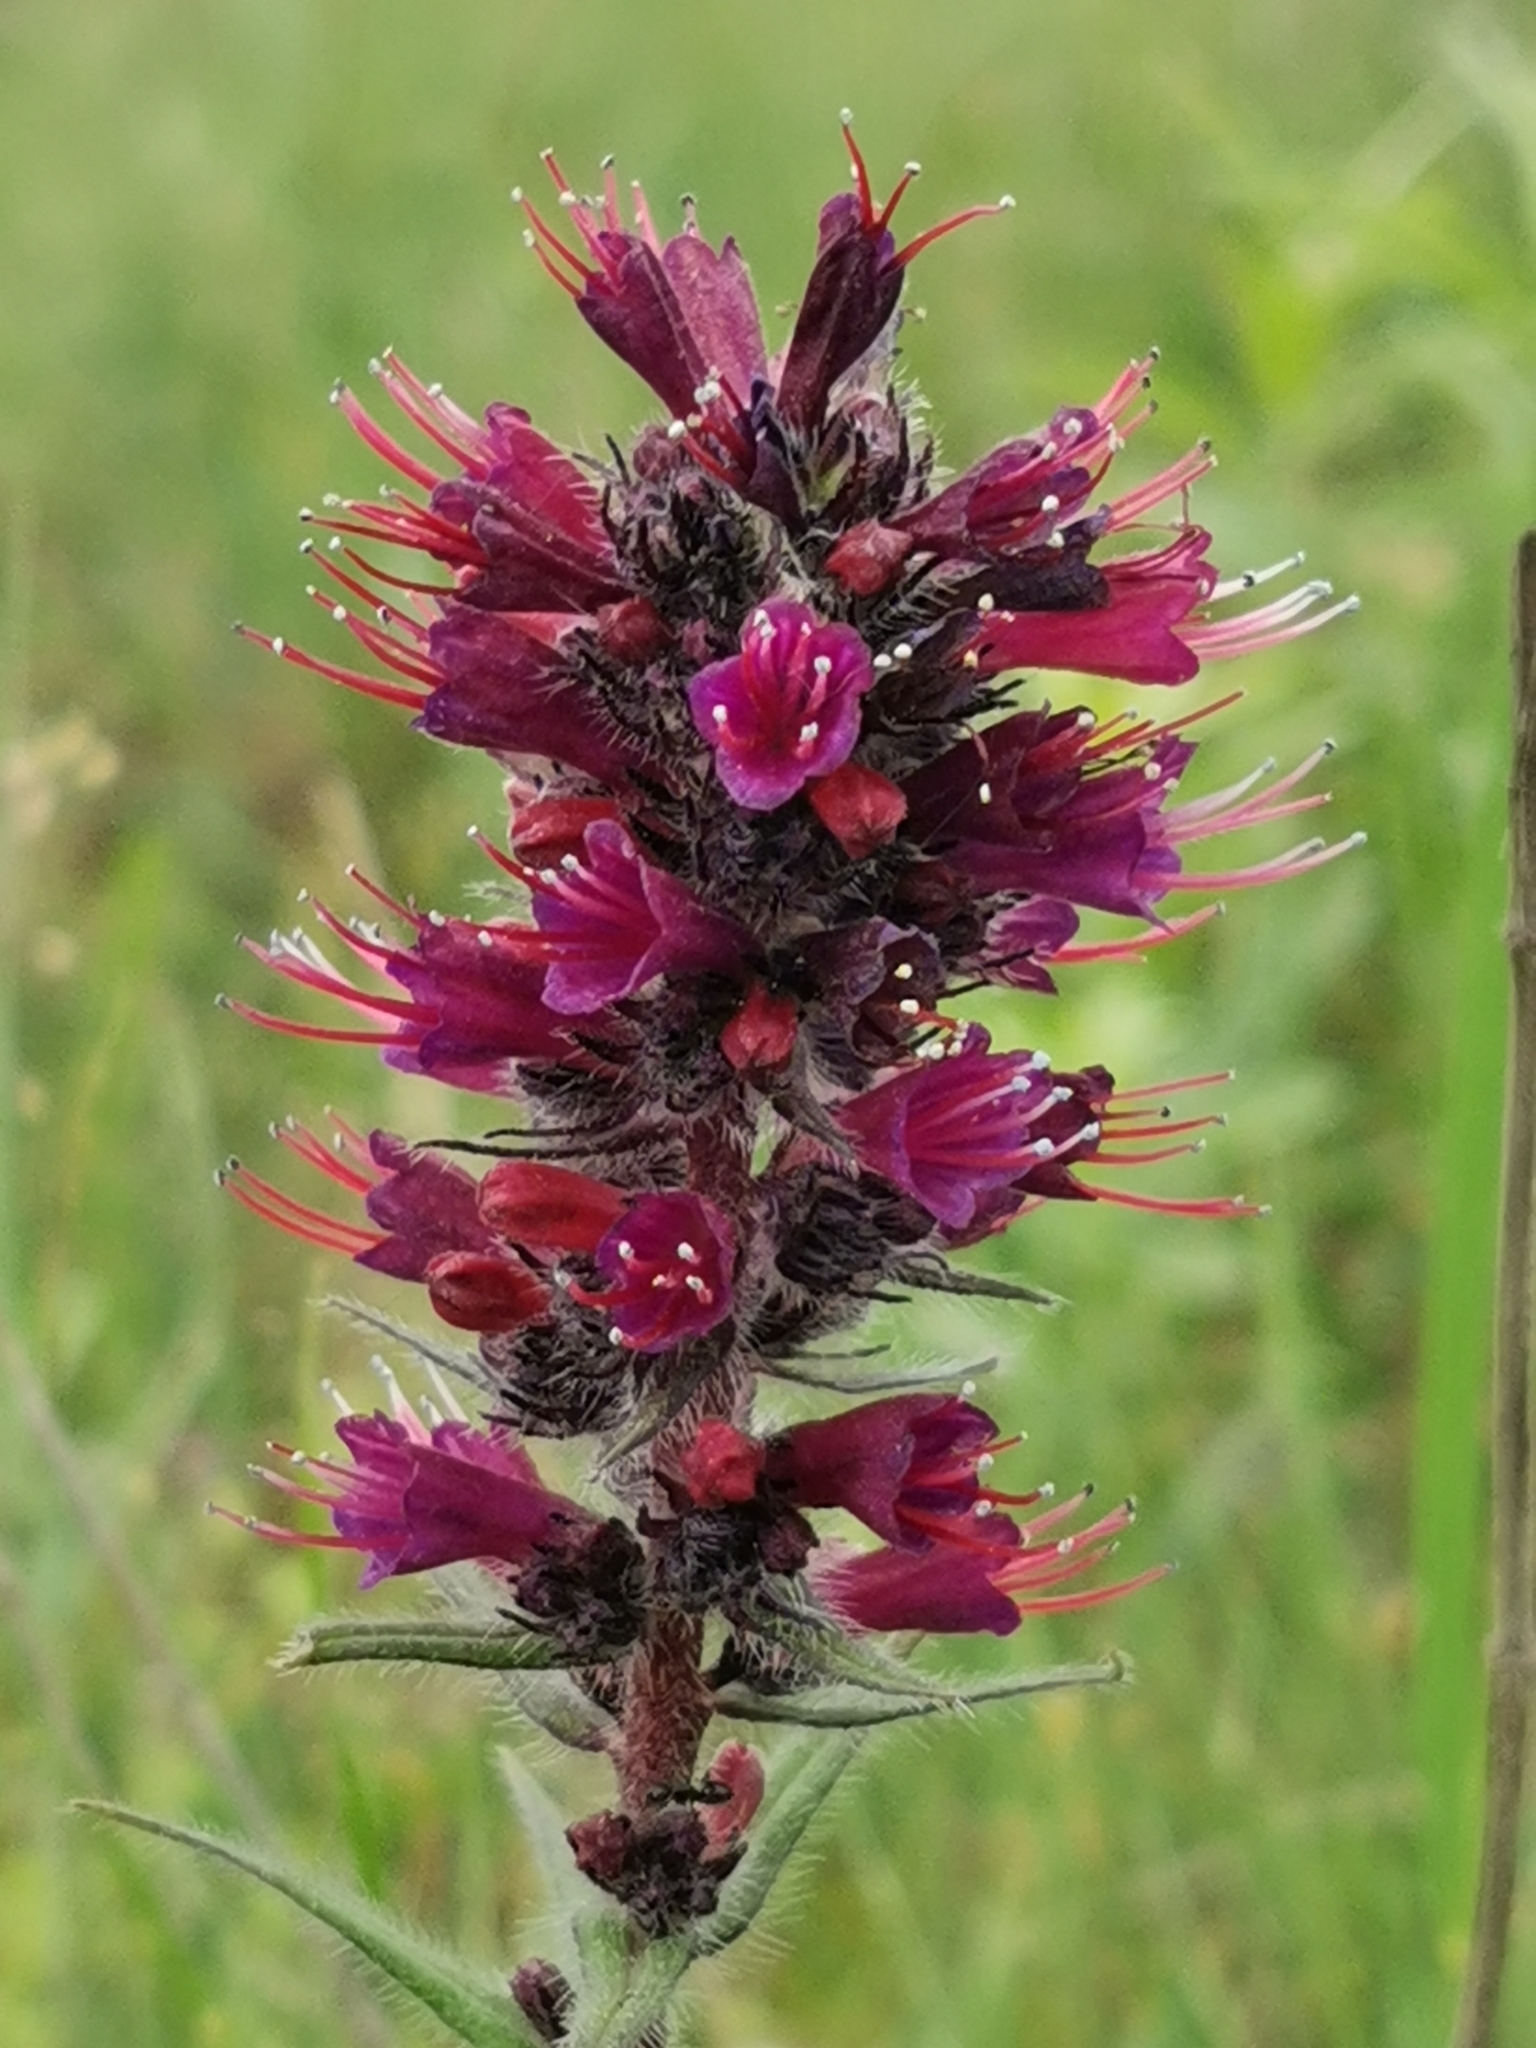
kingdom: Plantae
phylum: Tracheophyta
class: Magnoliopsida
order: Boraginales
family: Boraginaceae
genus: Pontechium
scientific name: Pontechium maculatum
